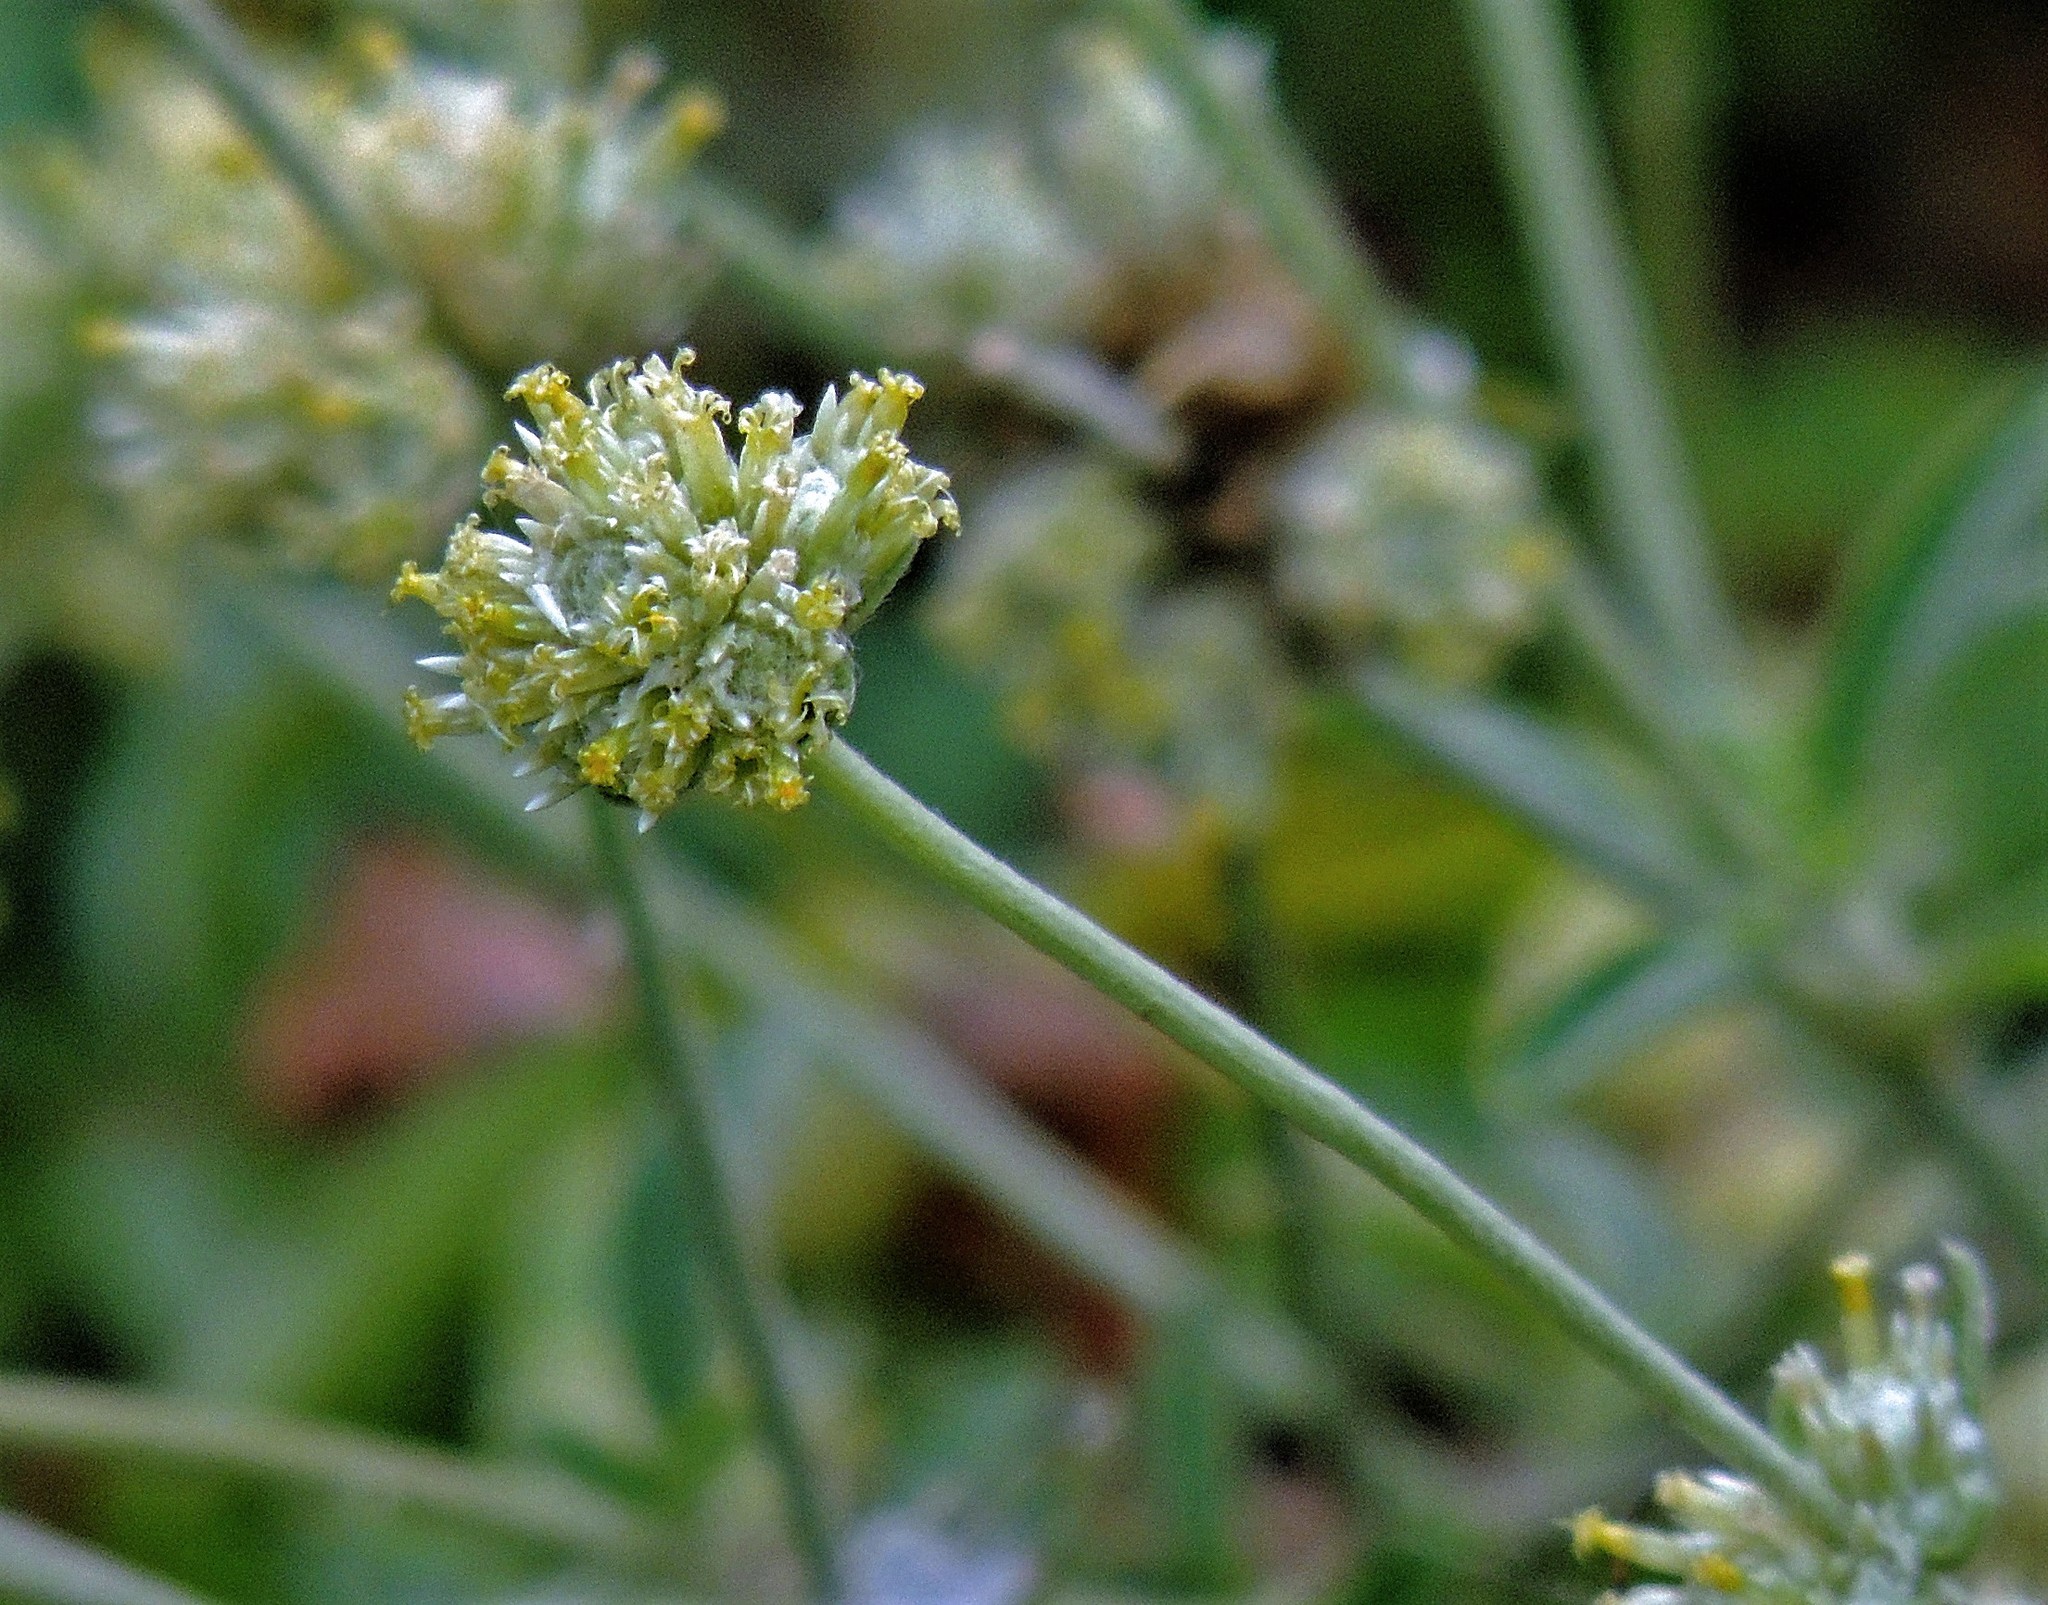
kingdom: Plantae
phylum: Tracheophyta
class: Magnoliopsida
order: Caryophyllales
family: Amaranthaceae
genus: Gomphrena
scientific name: Gomphrena perennis
